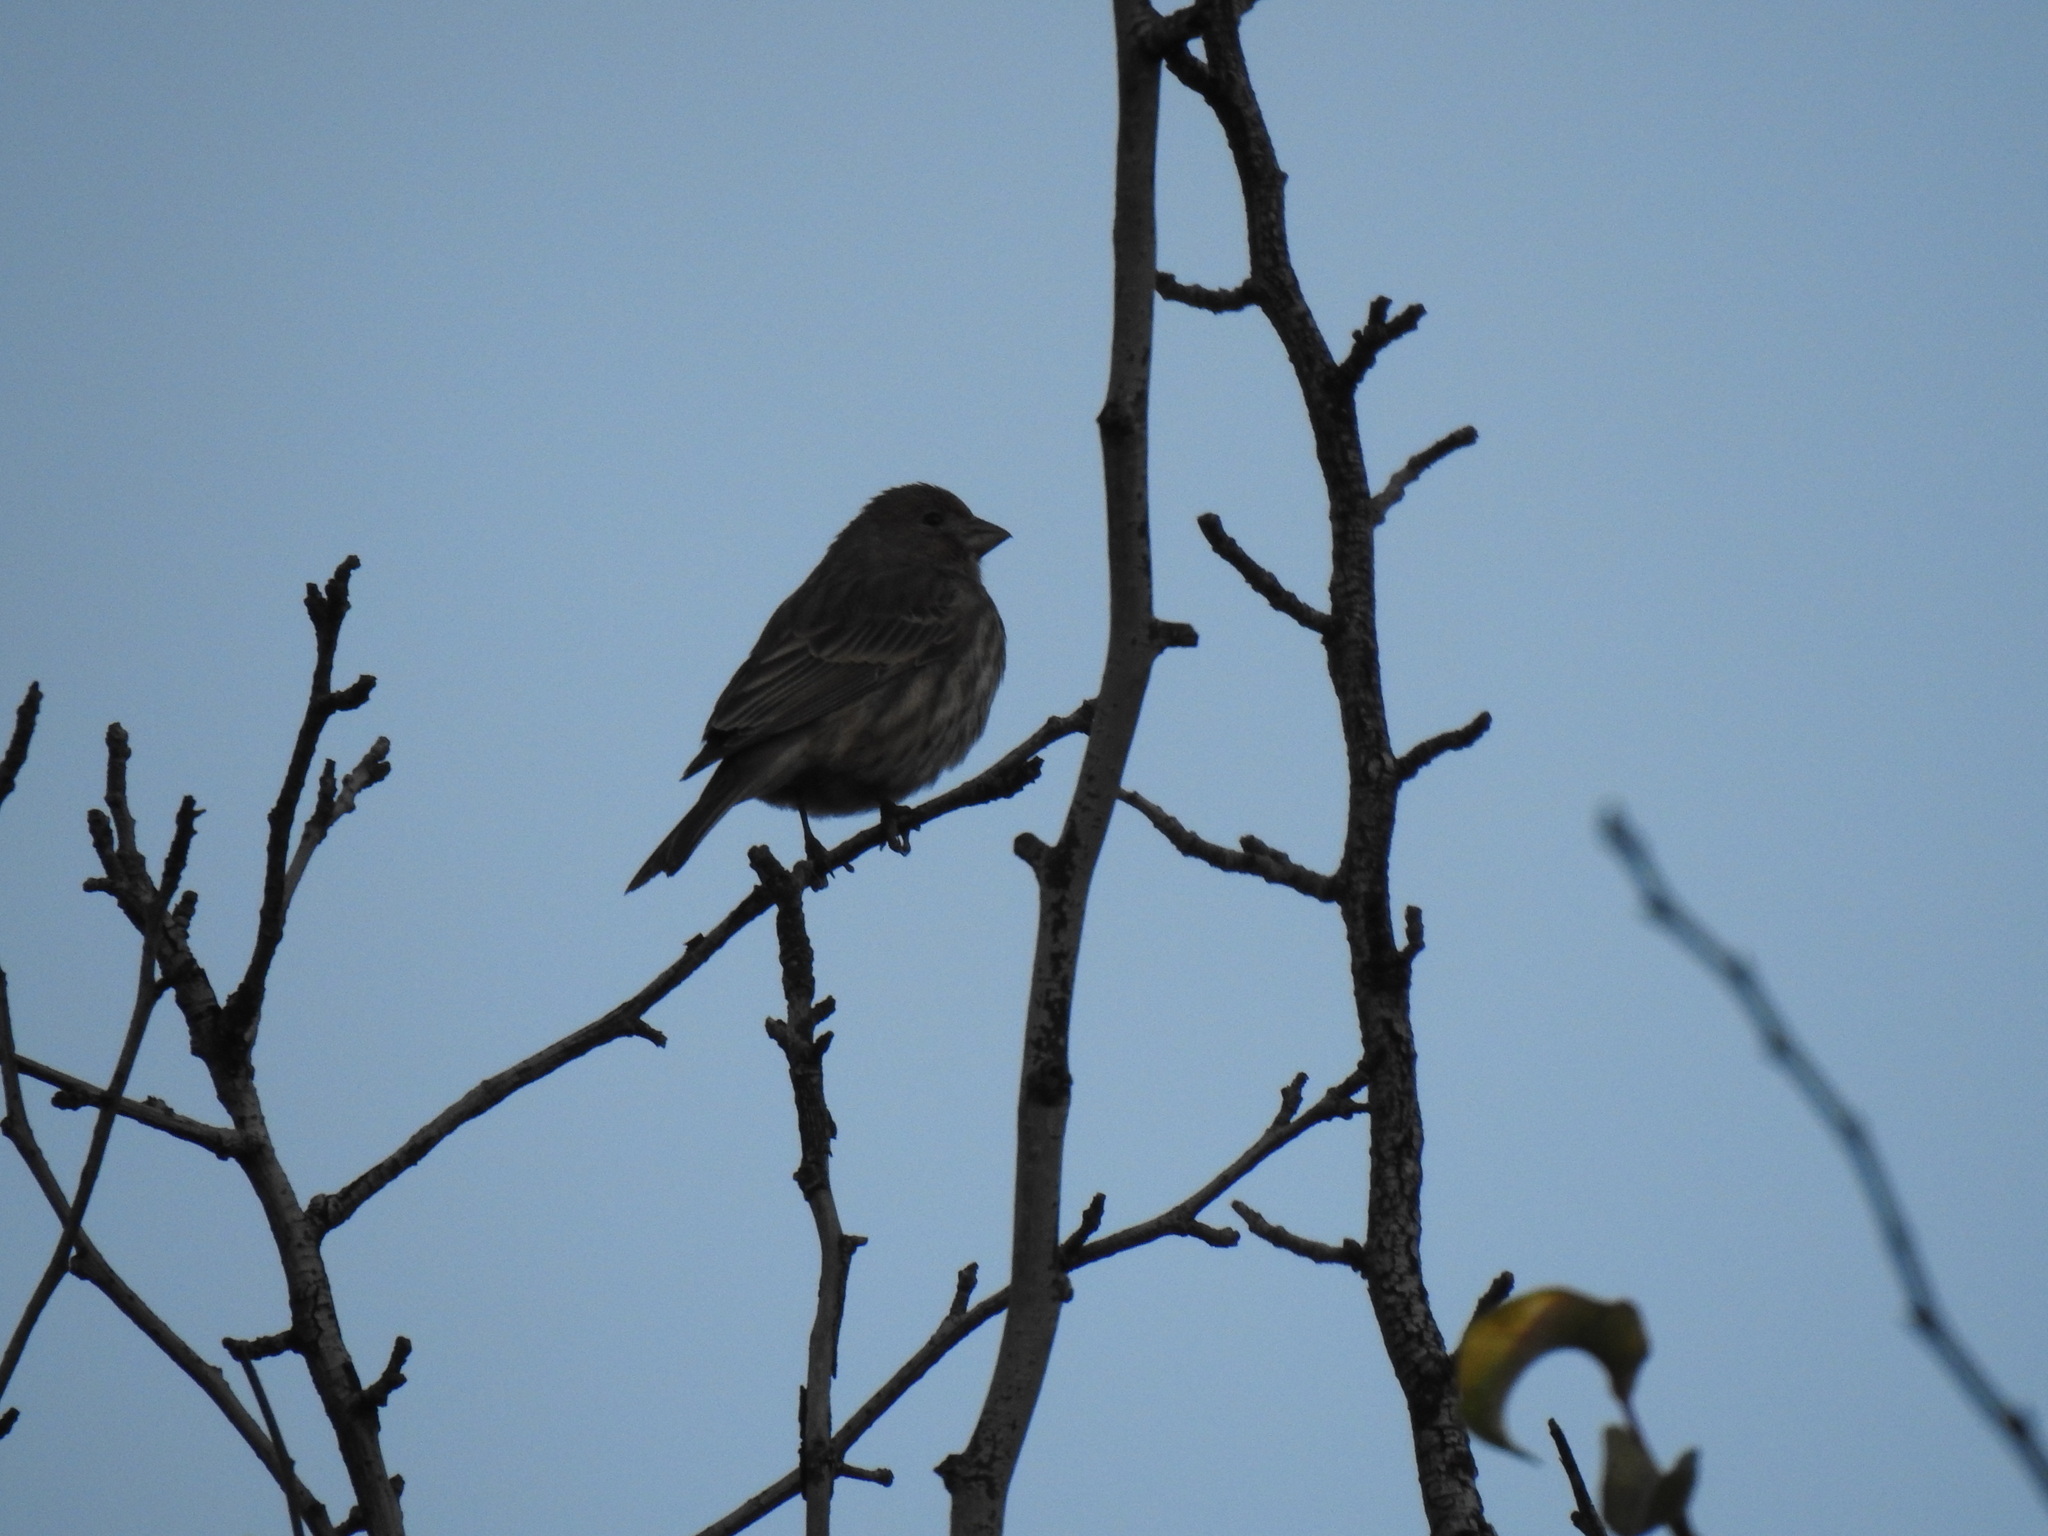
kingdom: Animalia
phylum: Chordata
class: Aves
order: Passeriformes
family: Fringillidae
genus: Haemorhous
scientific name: Haemorhous mexicanus
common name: House finch
